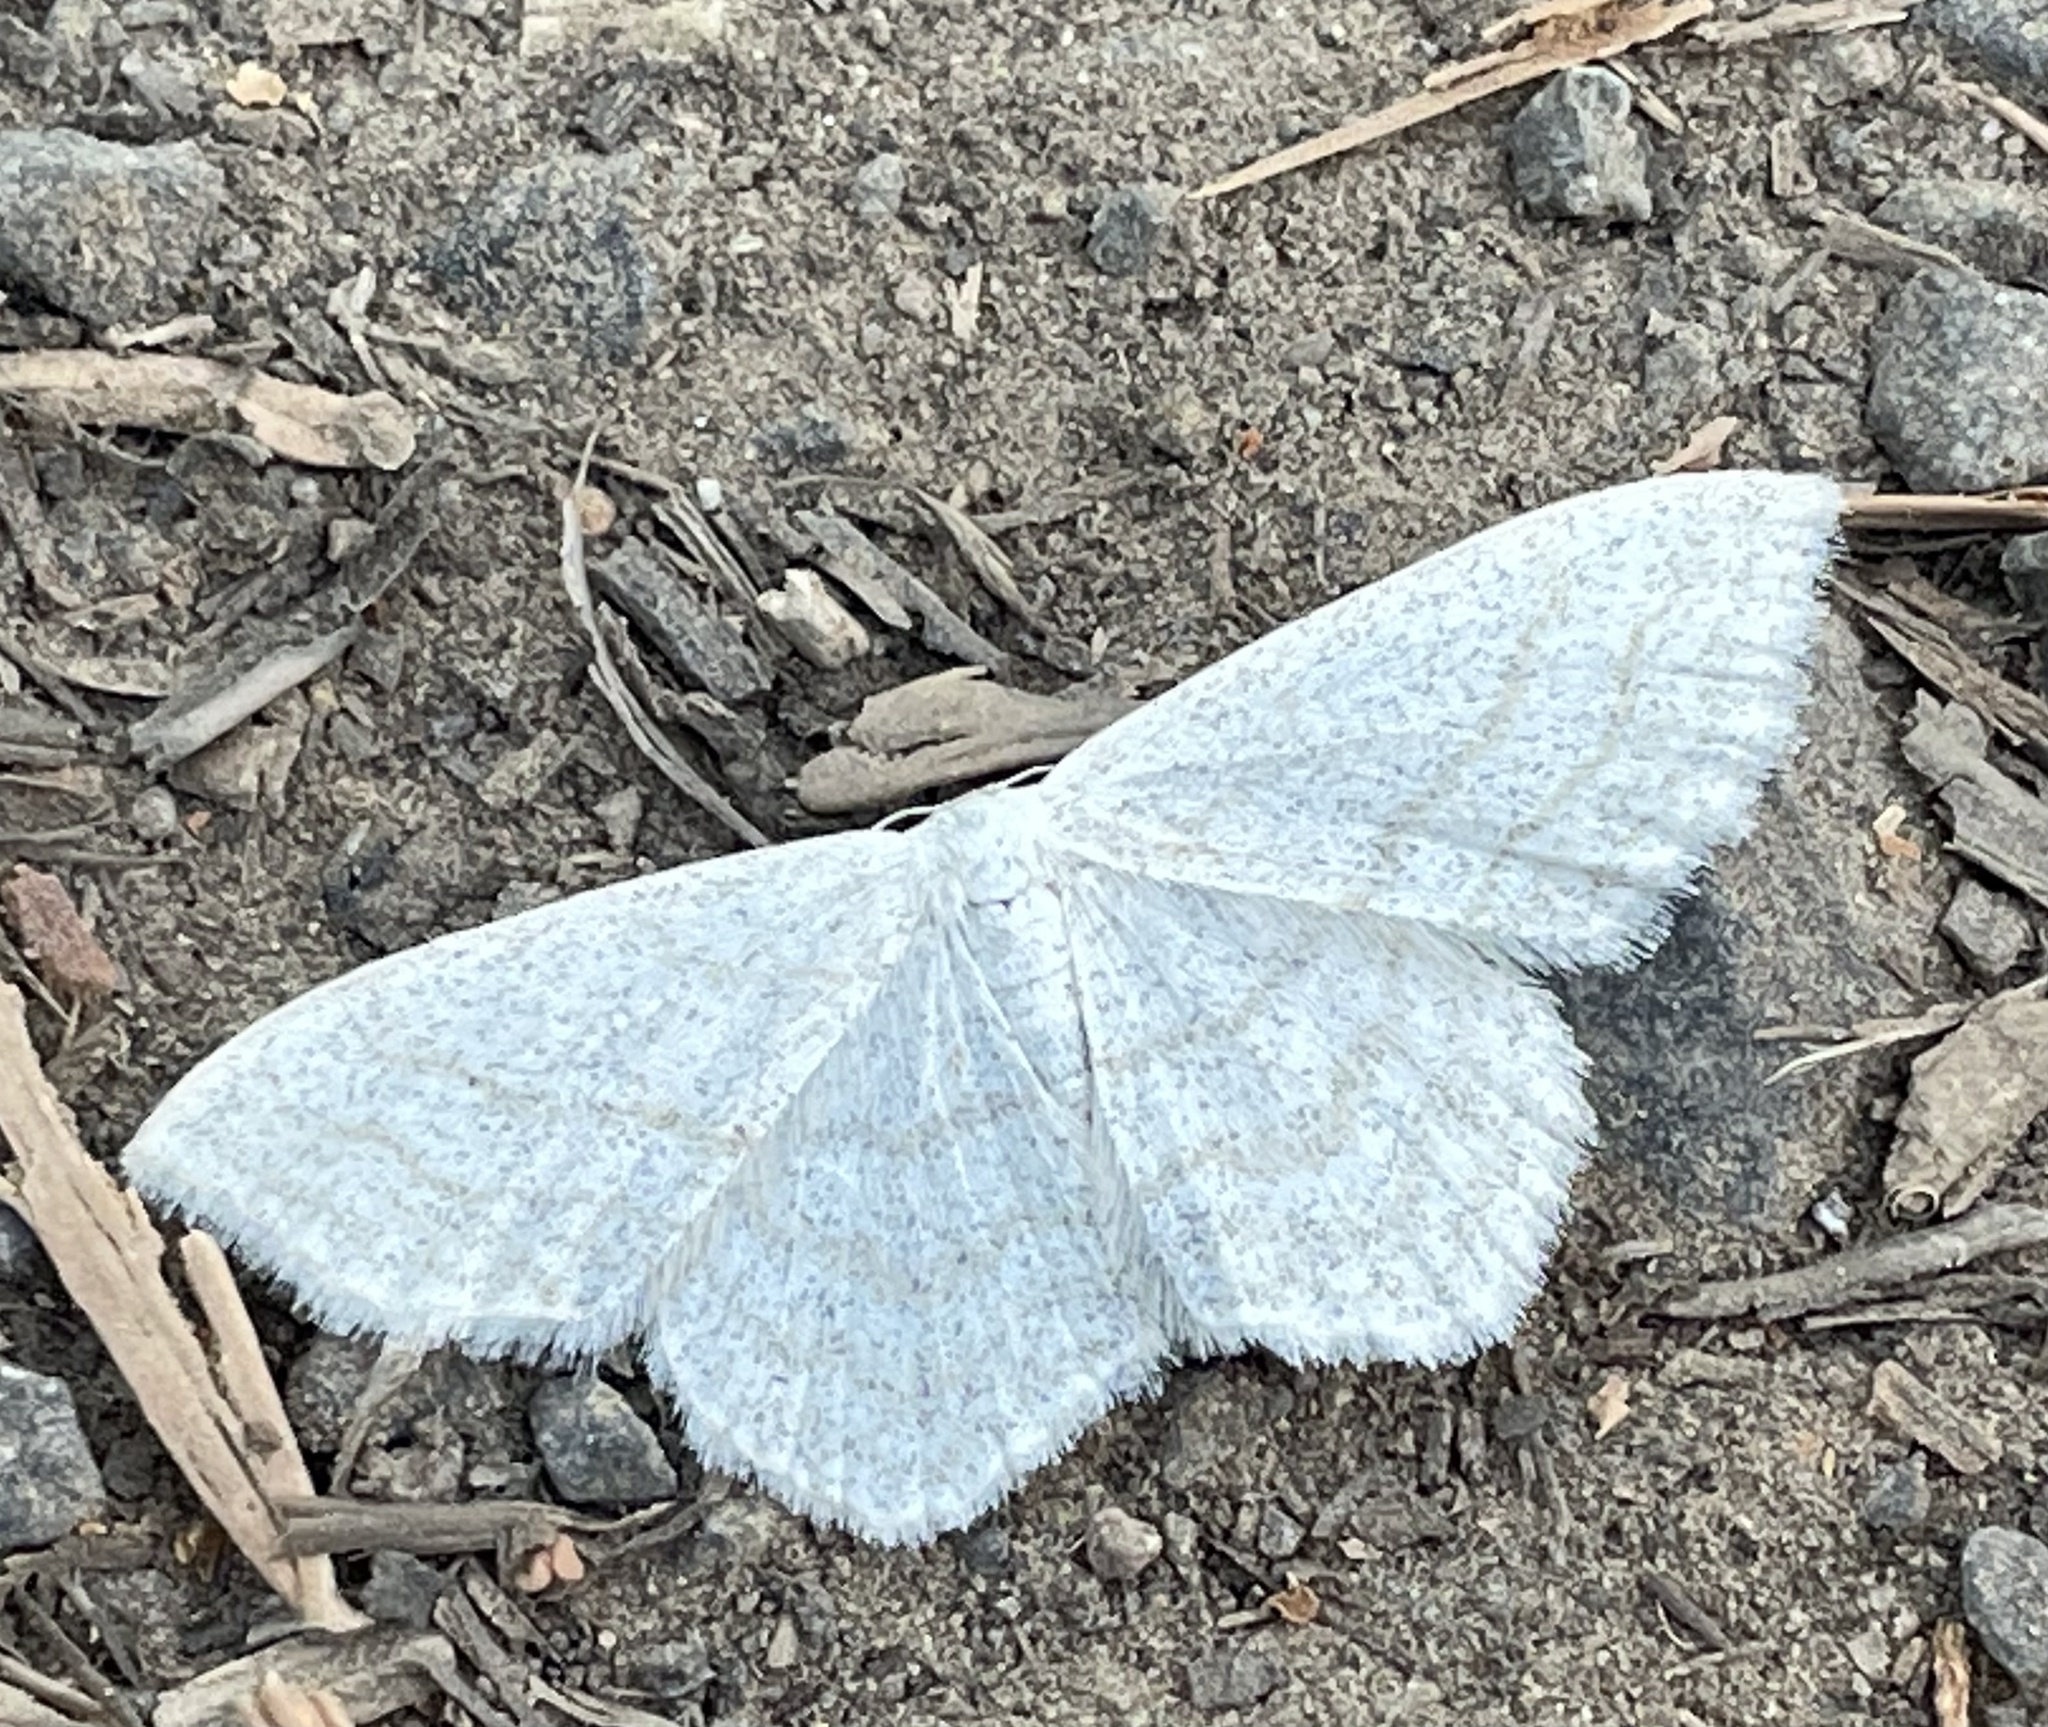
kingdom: Animalia
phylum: Arthropoda
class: Insecta
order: Lepidoptera
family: Geometridae
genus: Scopula
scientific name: Scopula junctaria
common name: Simple wave
